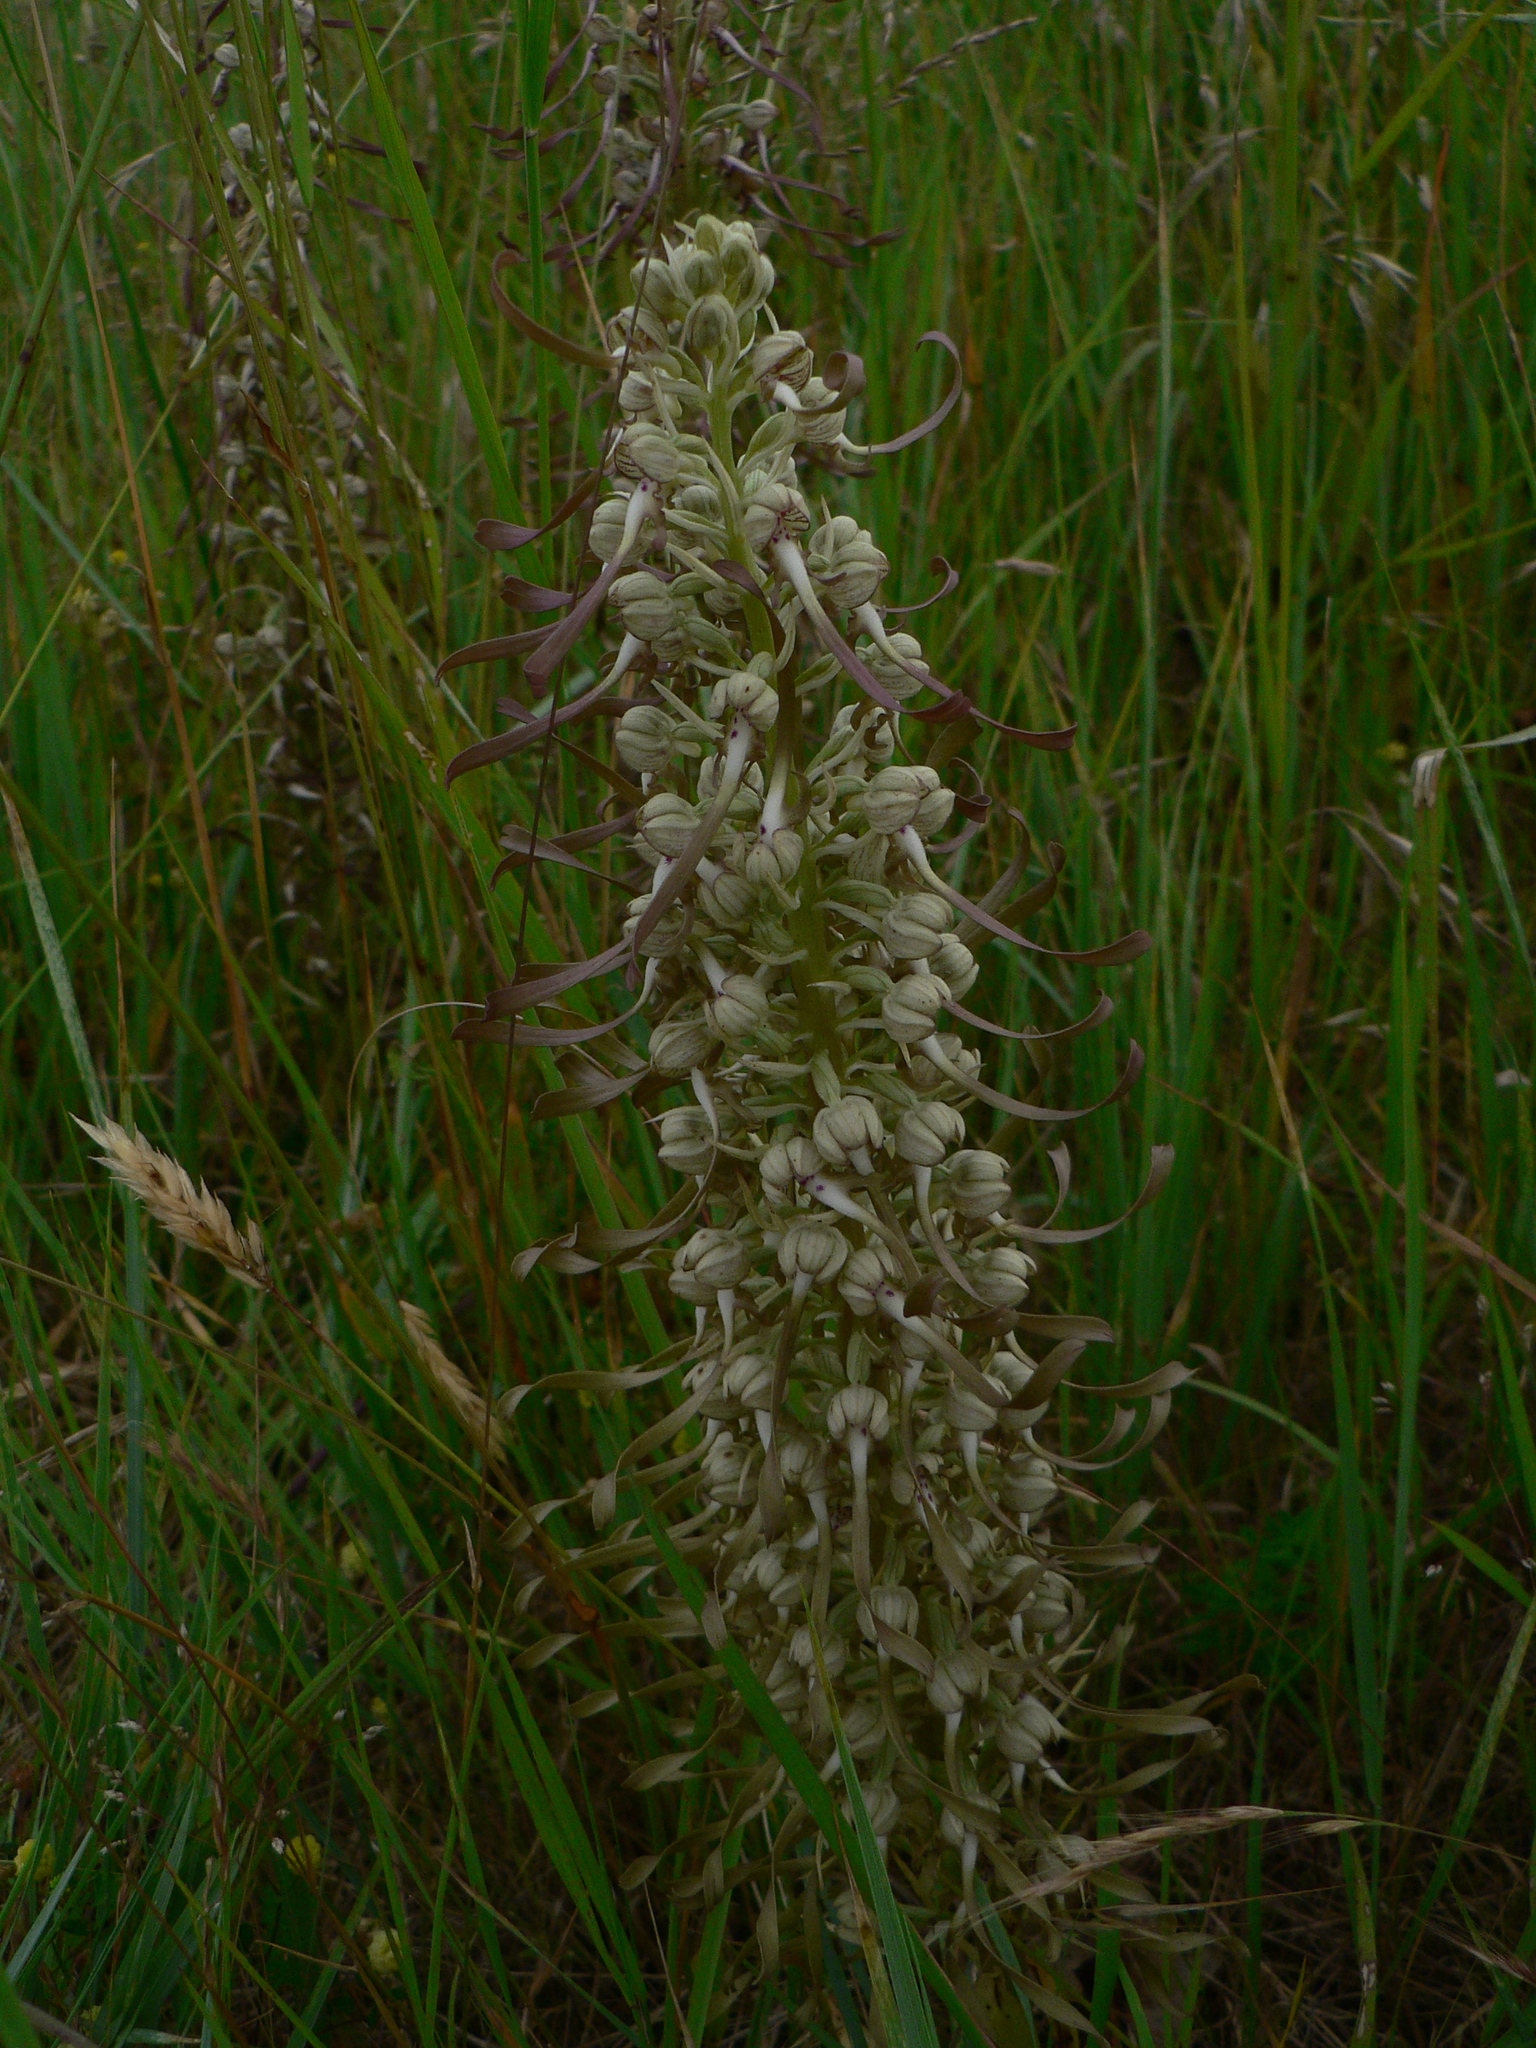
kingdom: Plantae
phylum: Tracheophyta
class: Liliopsida
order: Asparagales
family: Orchidaceae
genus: Himantoglossum
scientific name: Himantoglossum hircinum
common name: Lizard orchid
